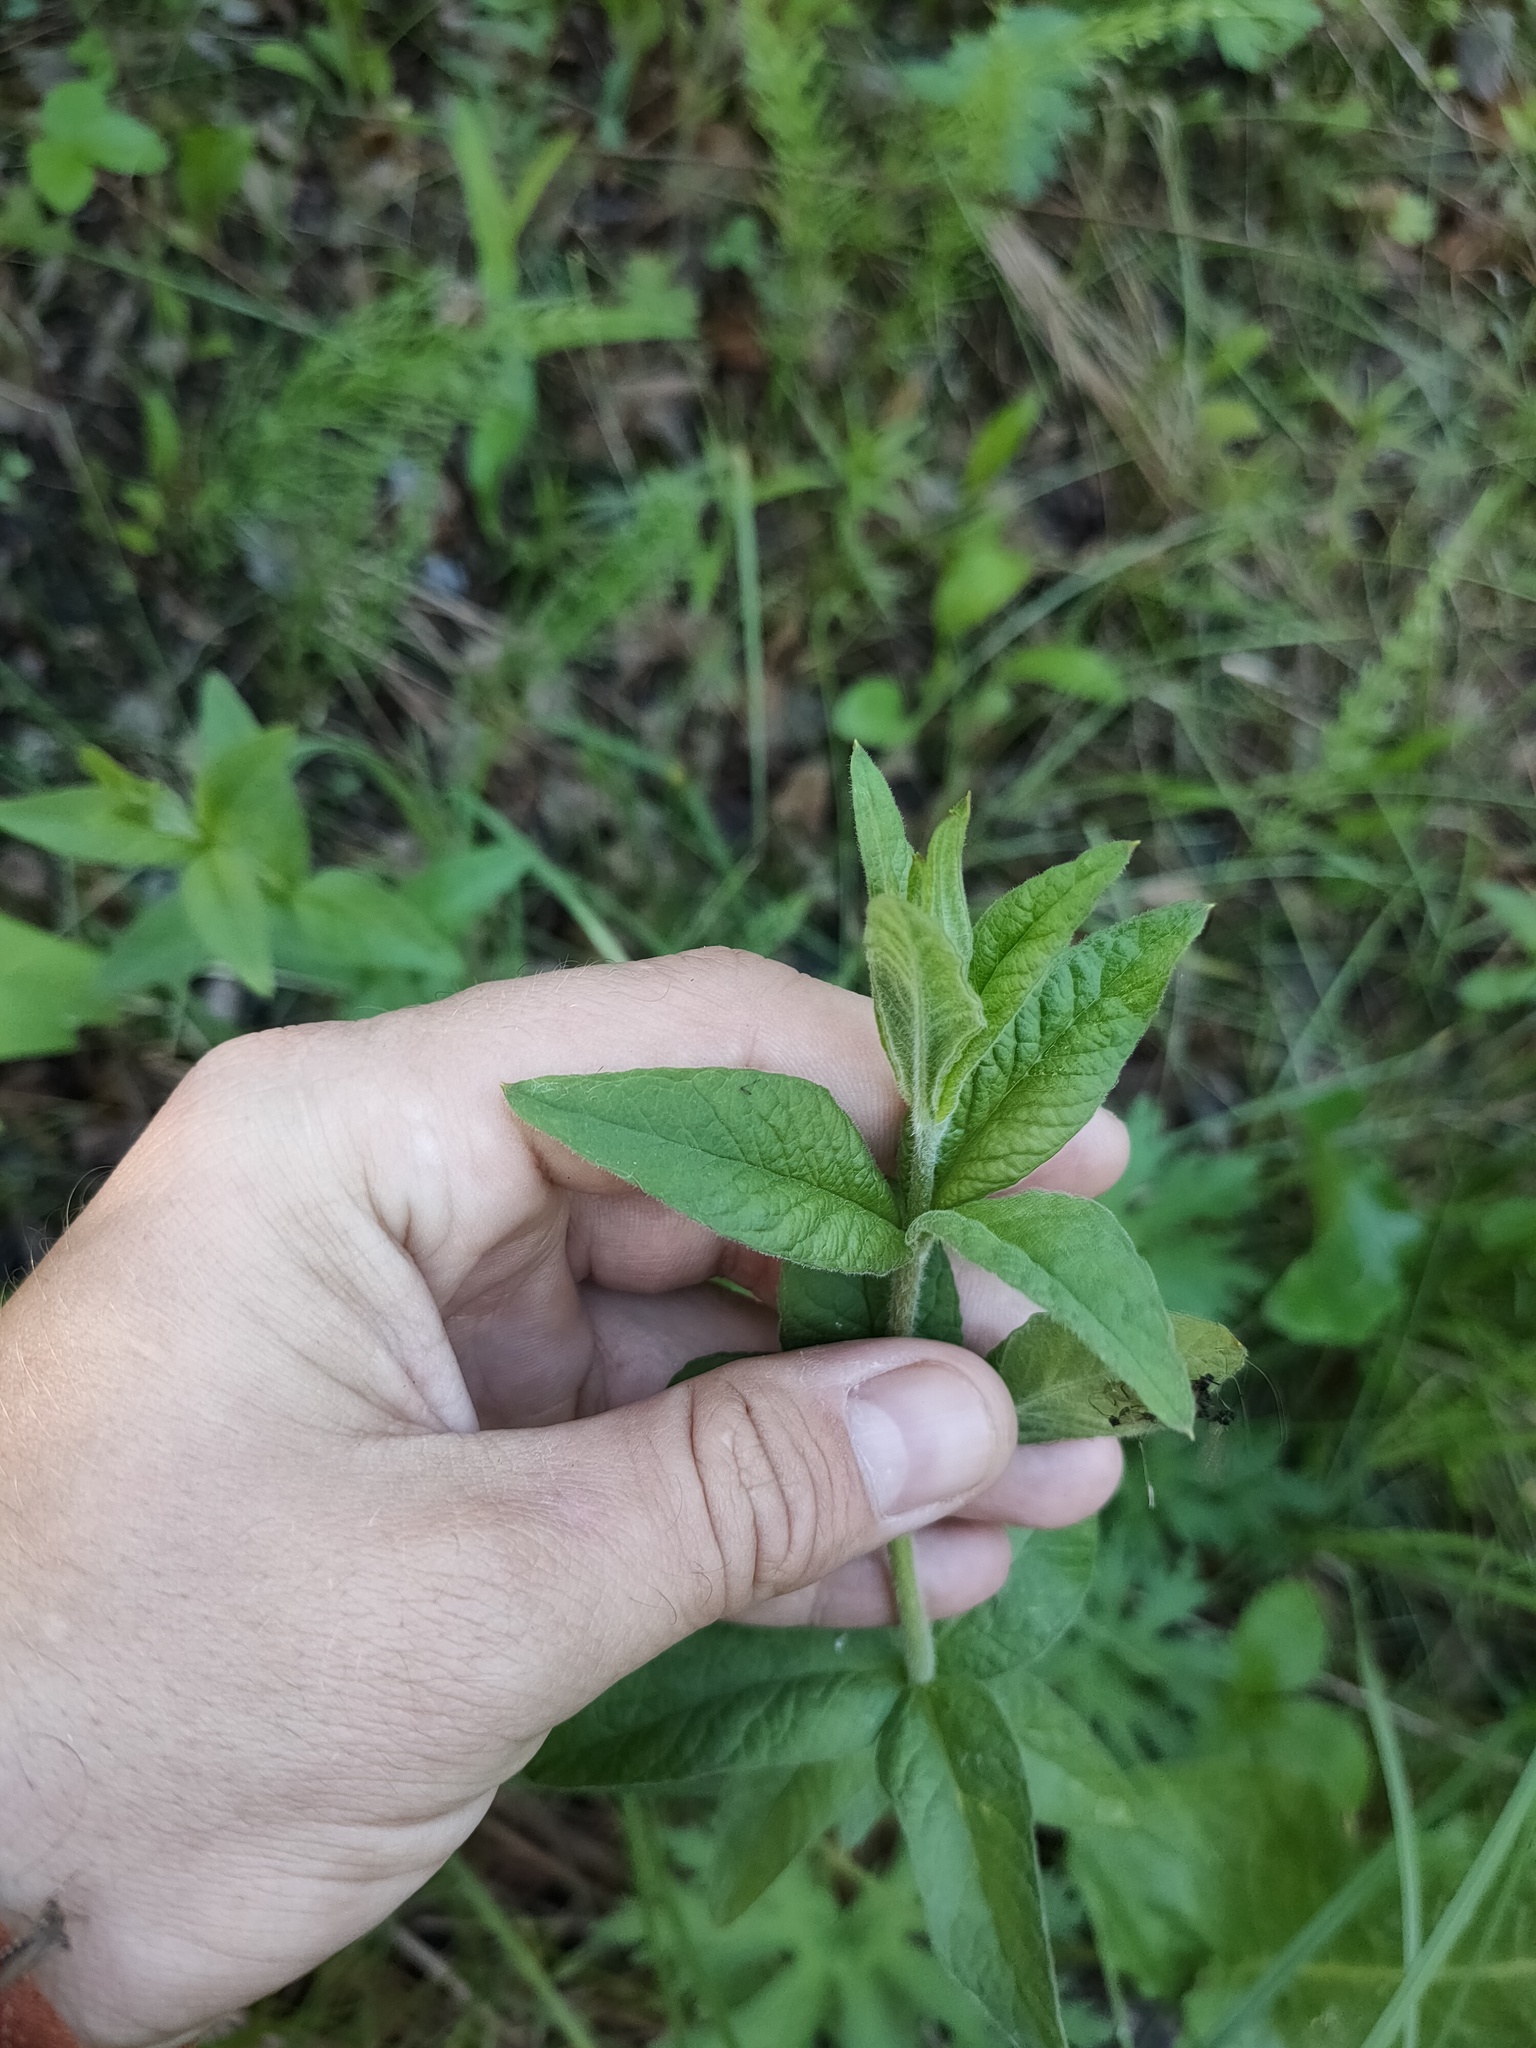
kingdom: Plantae
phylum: Tracheophyta
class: Magnoliopsida
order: Ericales
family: Primulaceae
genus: Lysimachia
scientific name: Lysimachia vulgaris
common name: Yellow loosestrife
